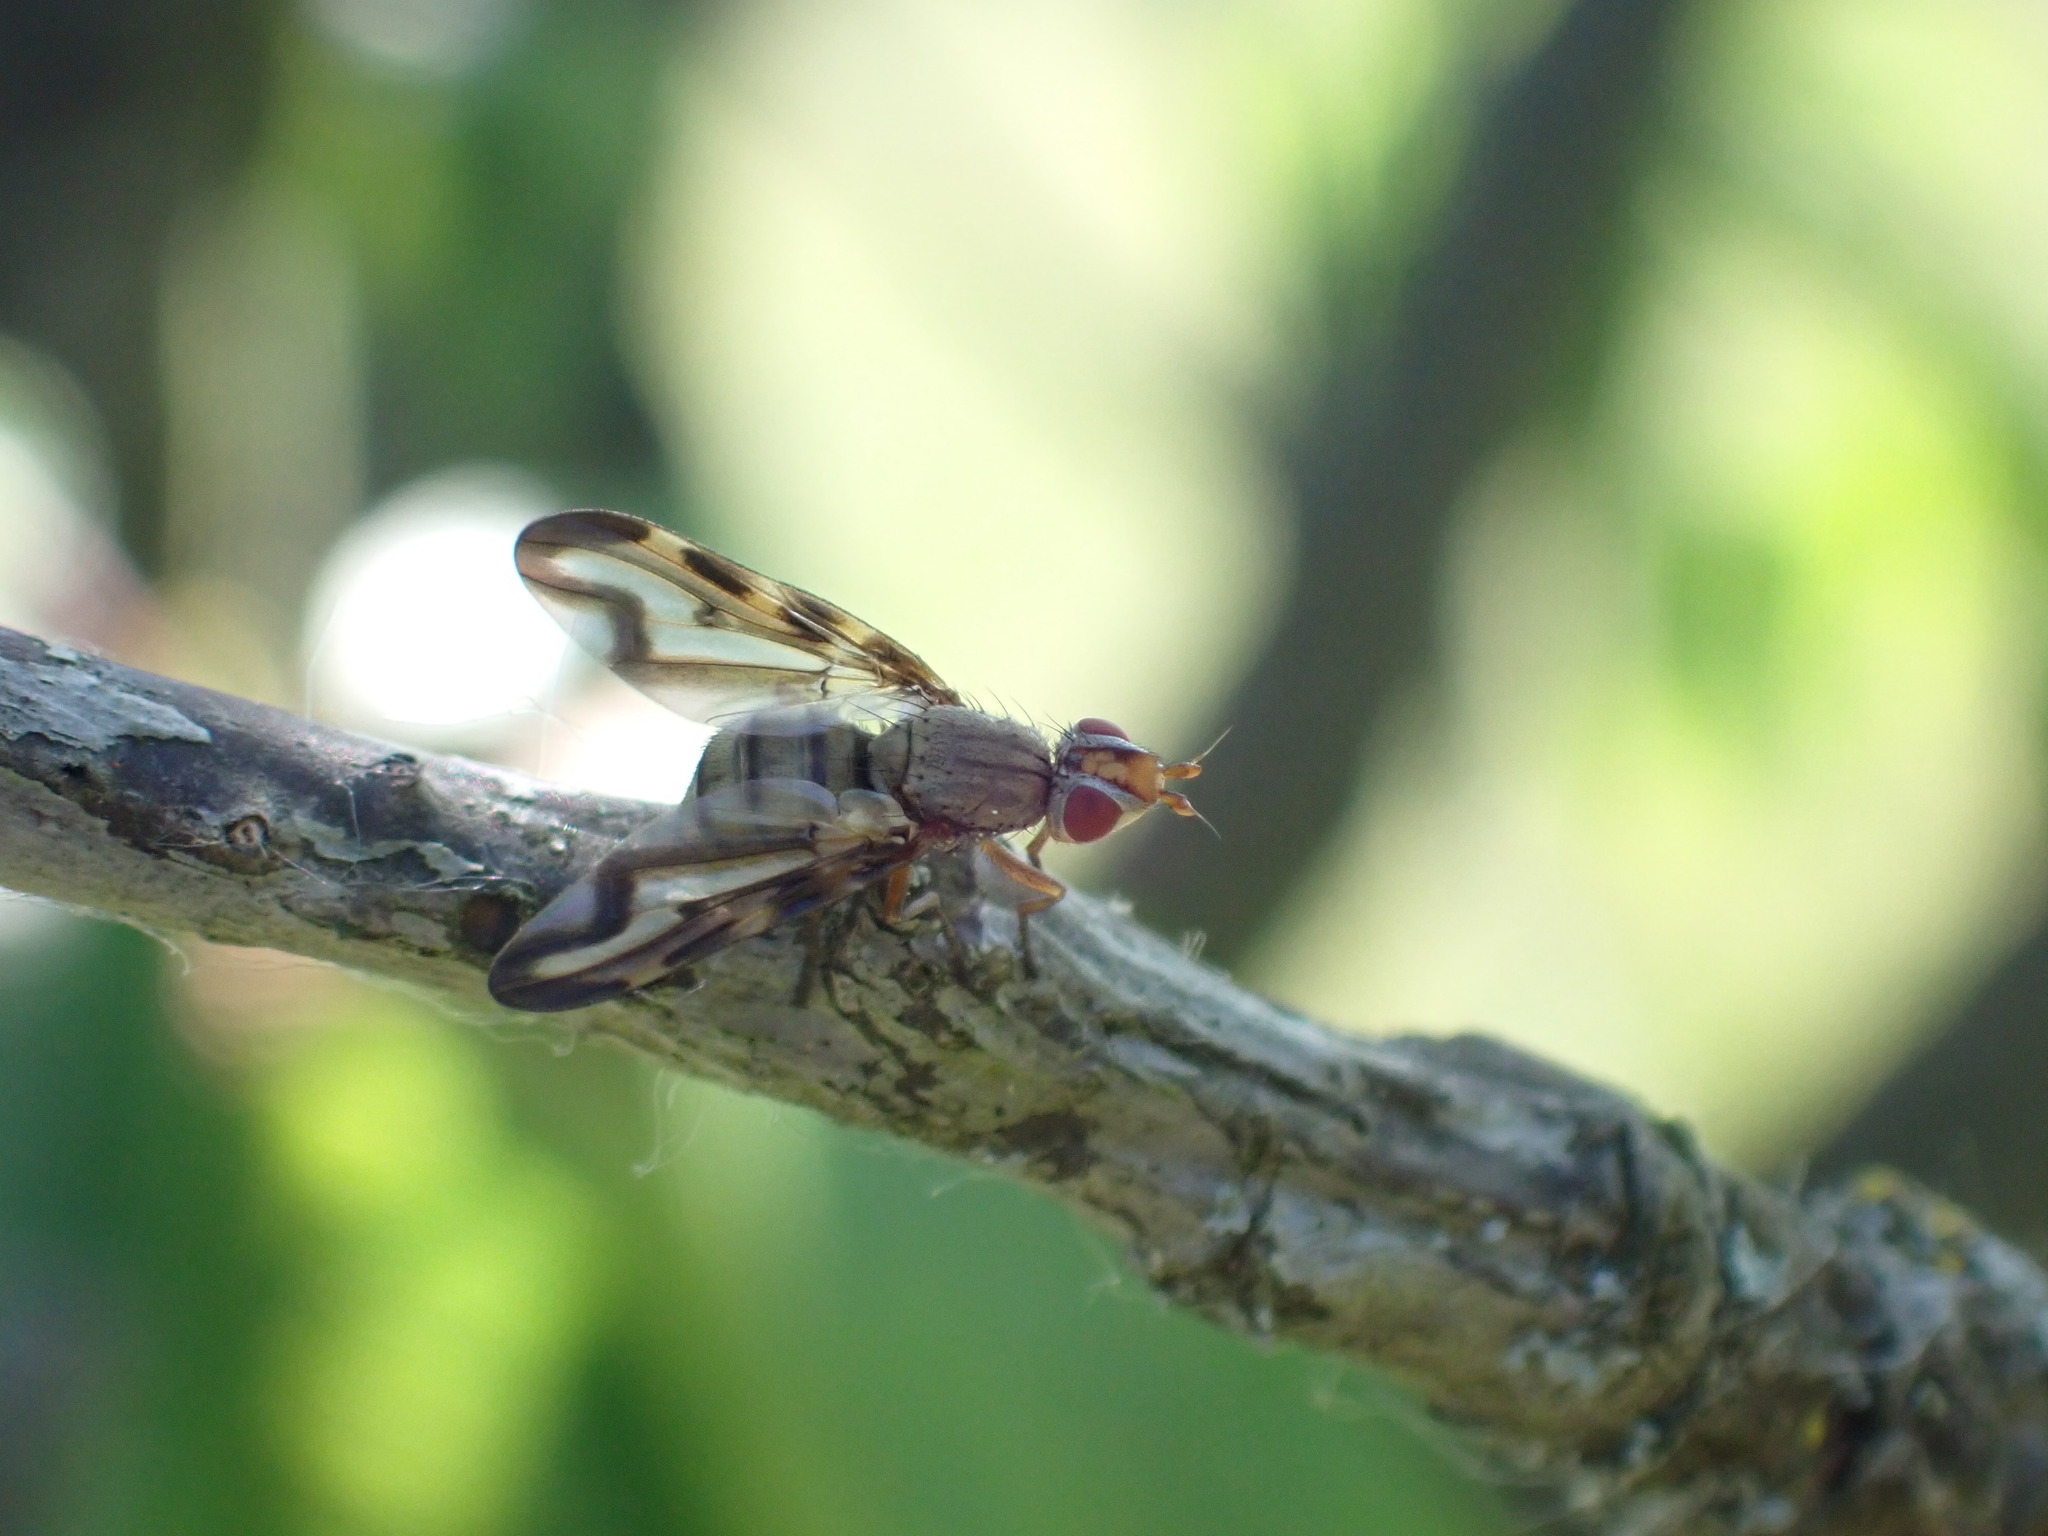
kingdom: Animalia
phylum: Arthropoda
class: Insecta
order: Diptera
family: Ulidiidae
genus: Otites
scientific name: Otites lamed
